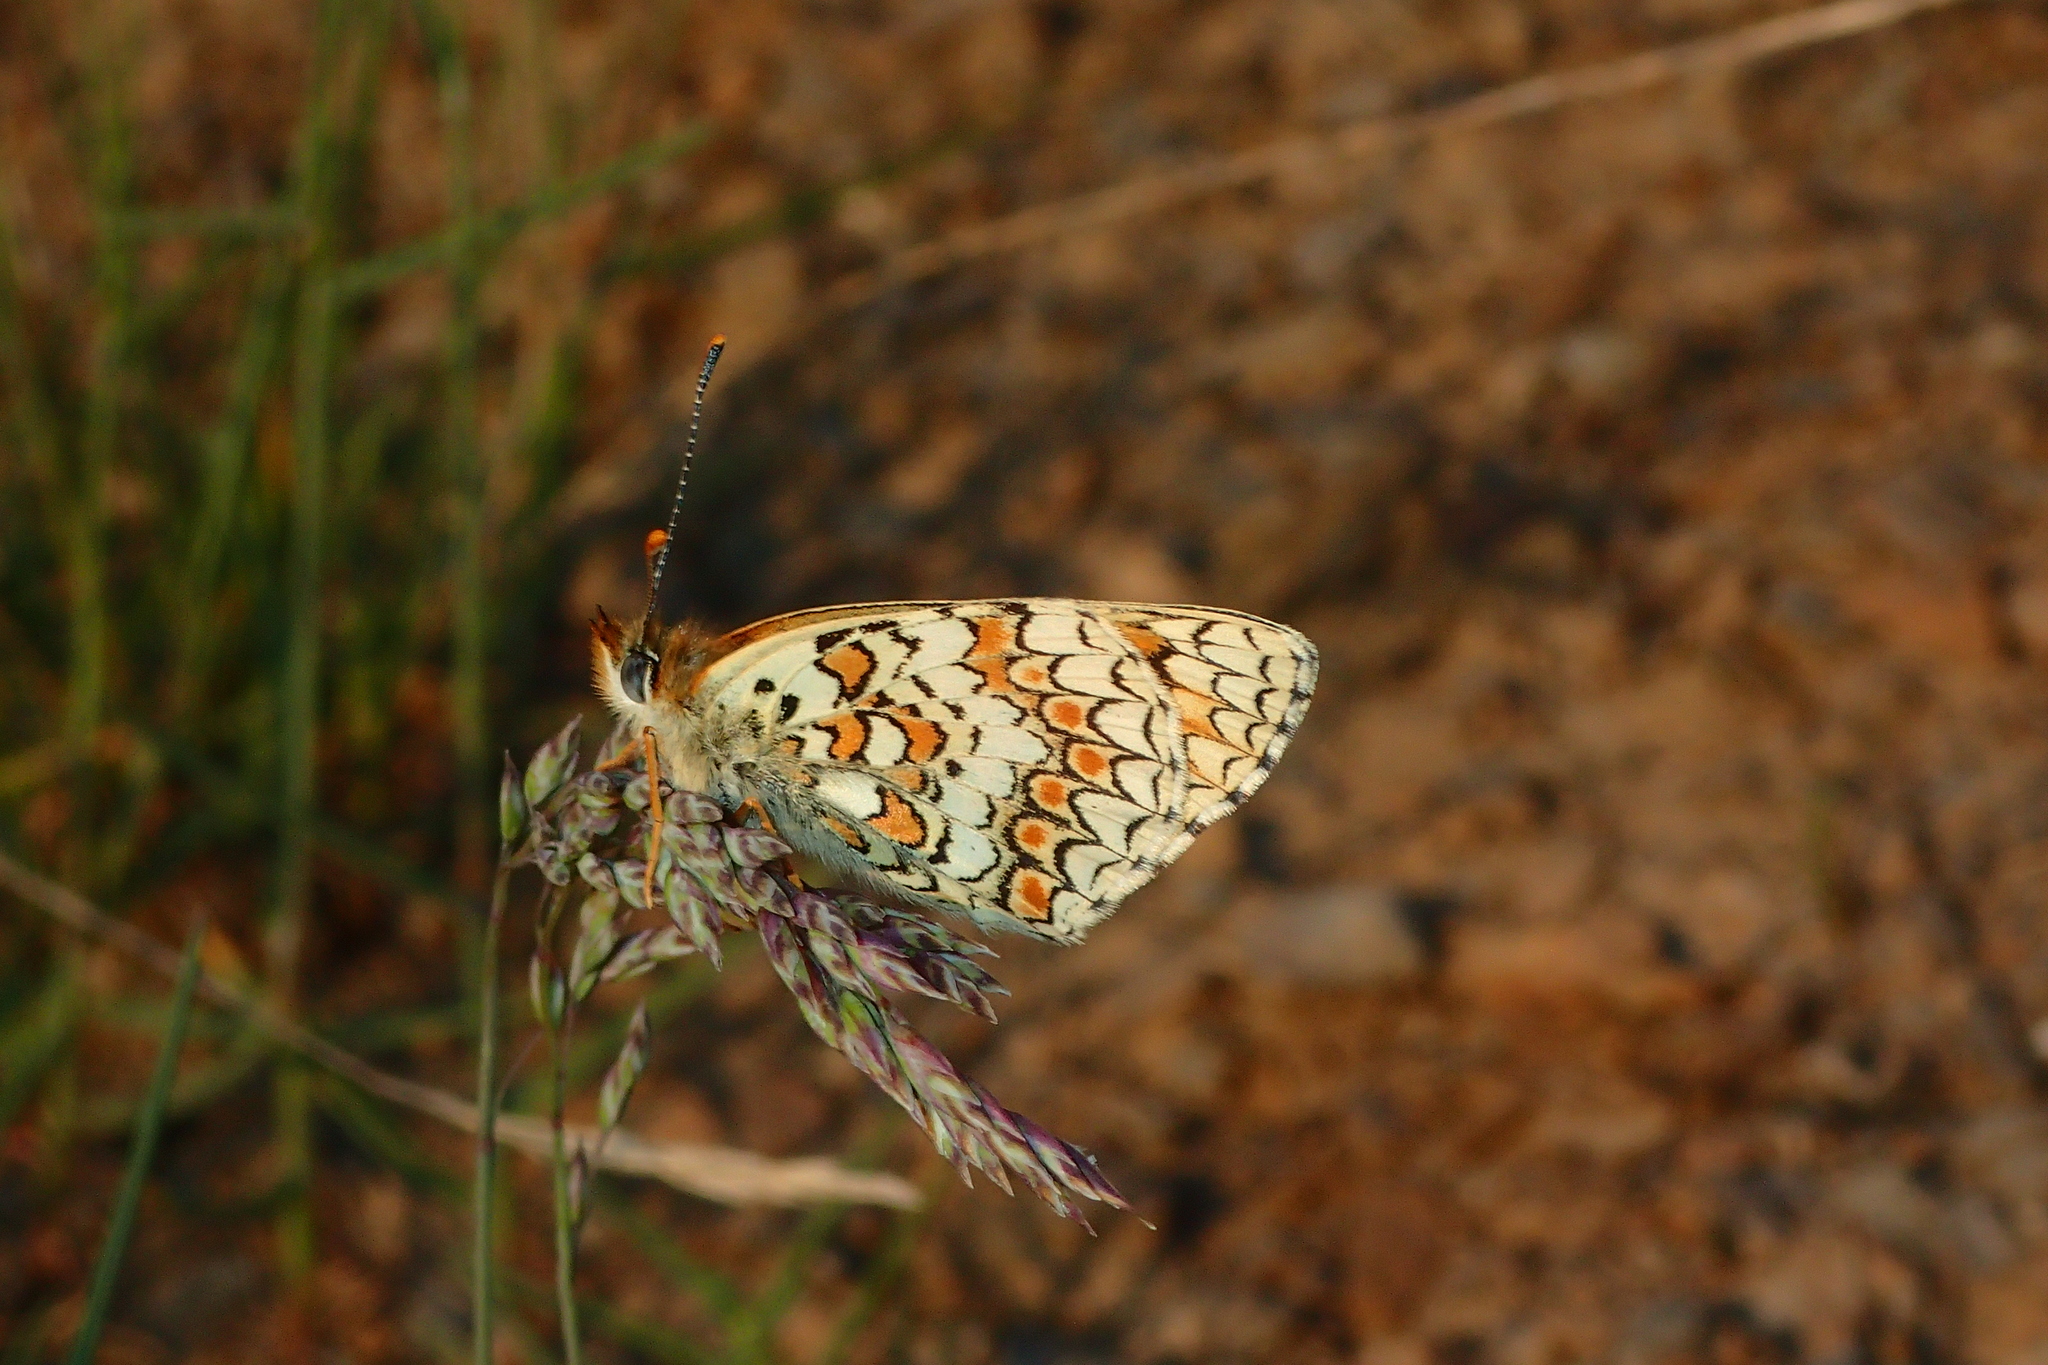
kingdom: Animalia
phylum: Arthropoda
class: Insecta
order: Lepidoptera
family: Nymphalidae
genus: Melitaea
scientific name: Melitaea phoebe
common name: Knapweed fritillary
